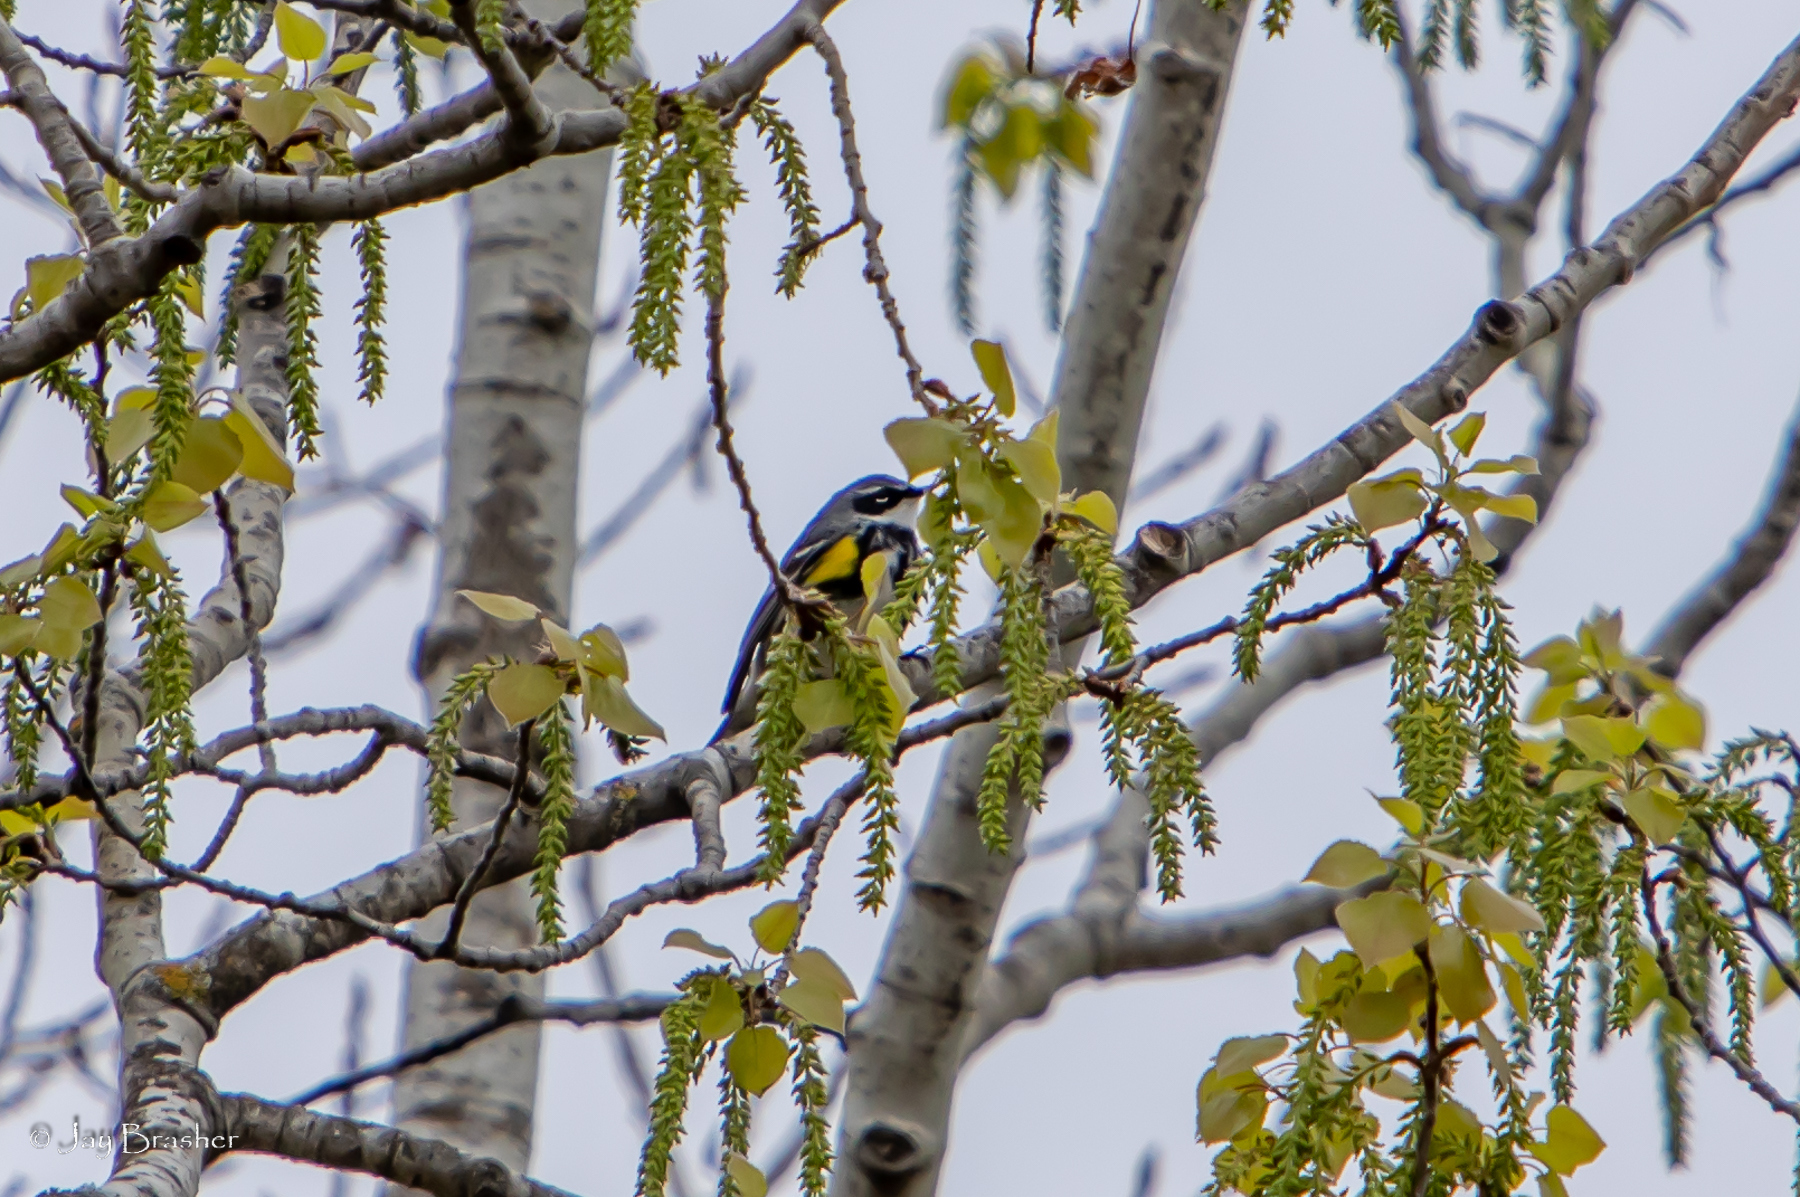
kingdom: Animalia
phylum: Chordata
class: Aves
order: Passeriformes
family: Parulidae
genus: Setophaga
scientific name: Setophaga coronata
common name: Myrtle warbler
